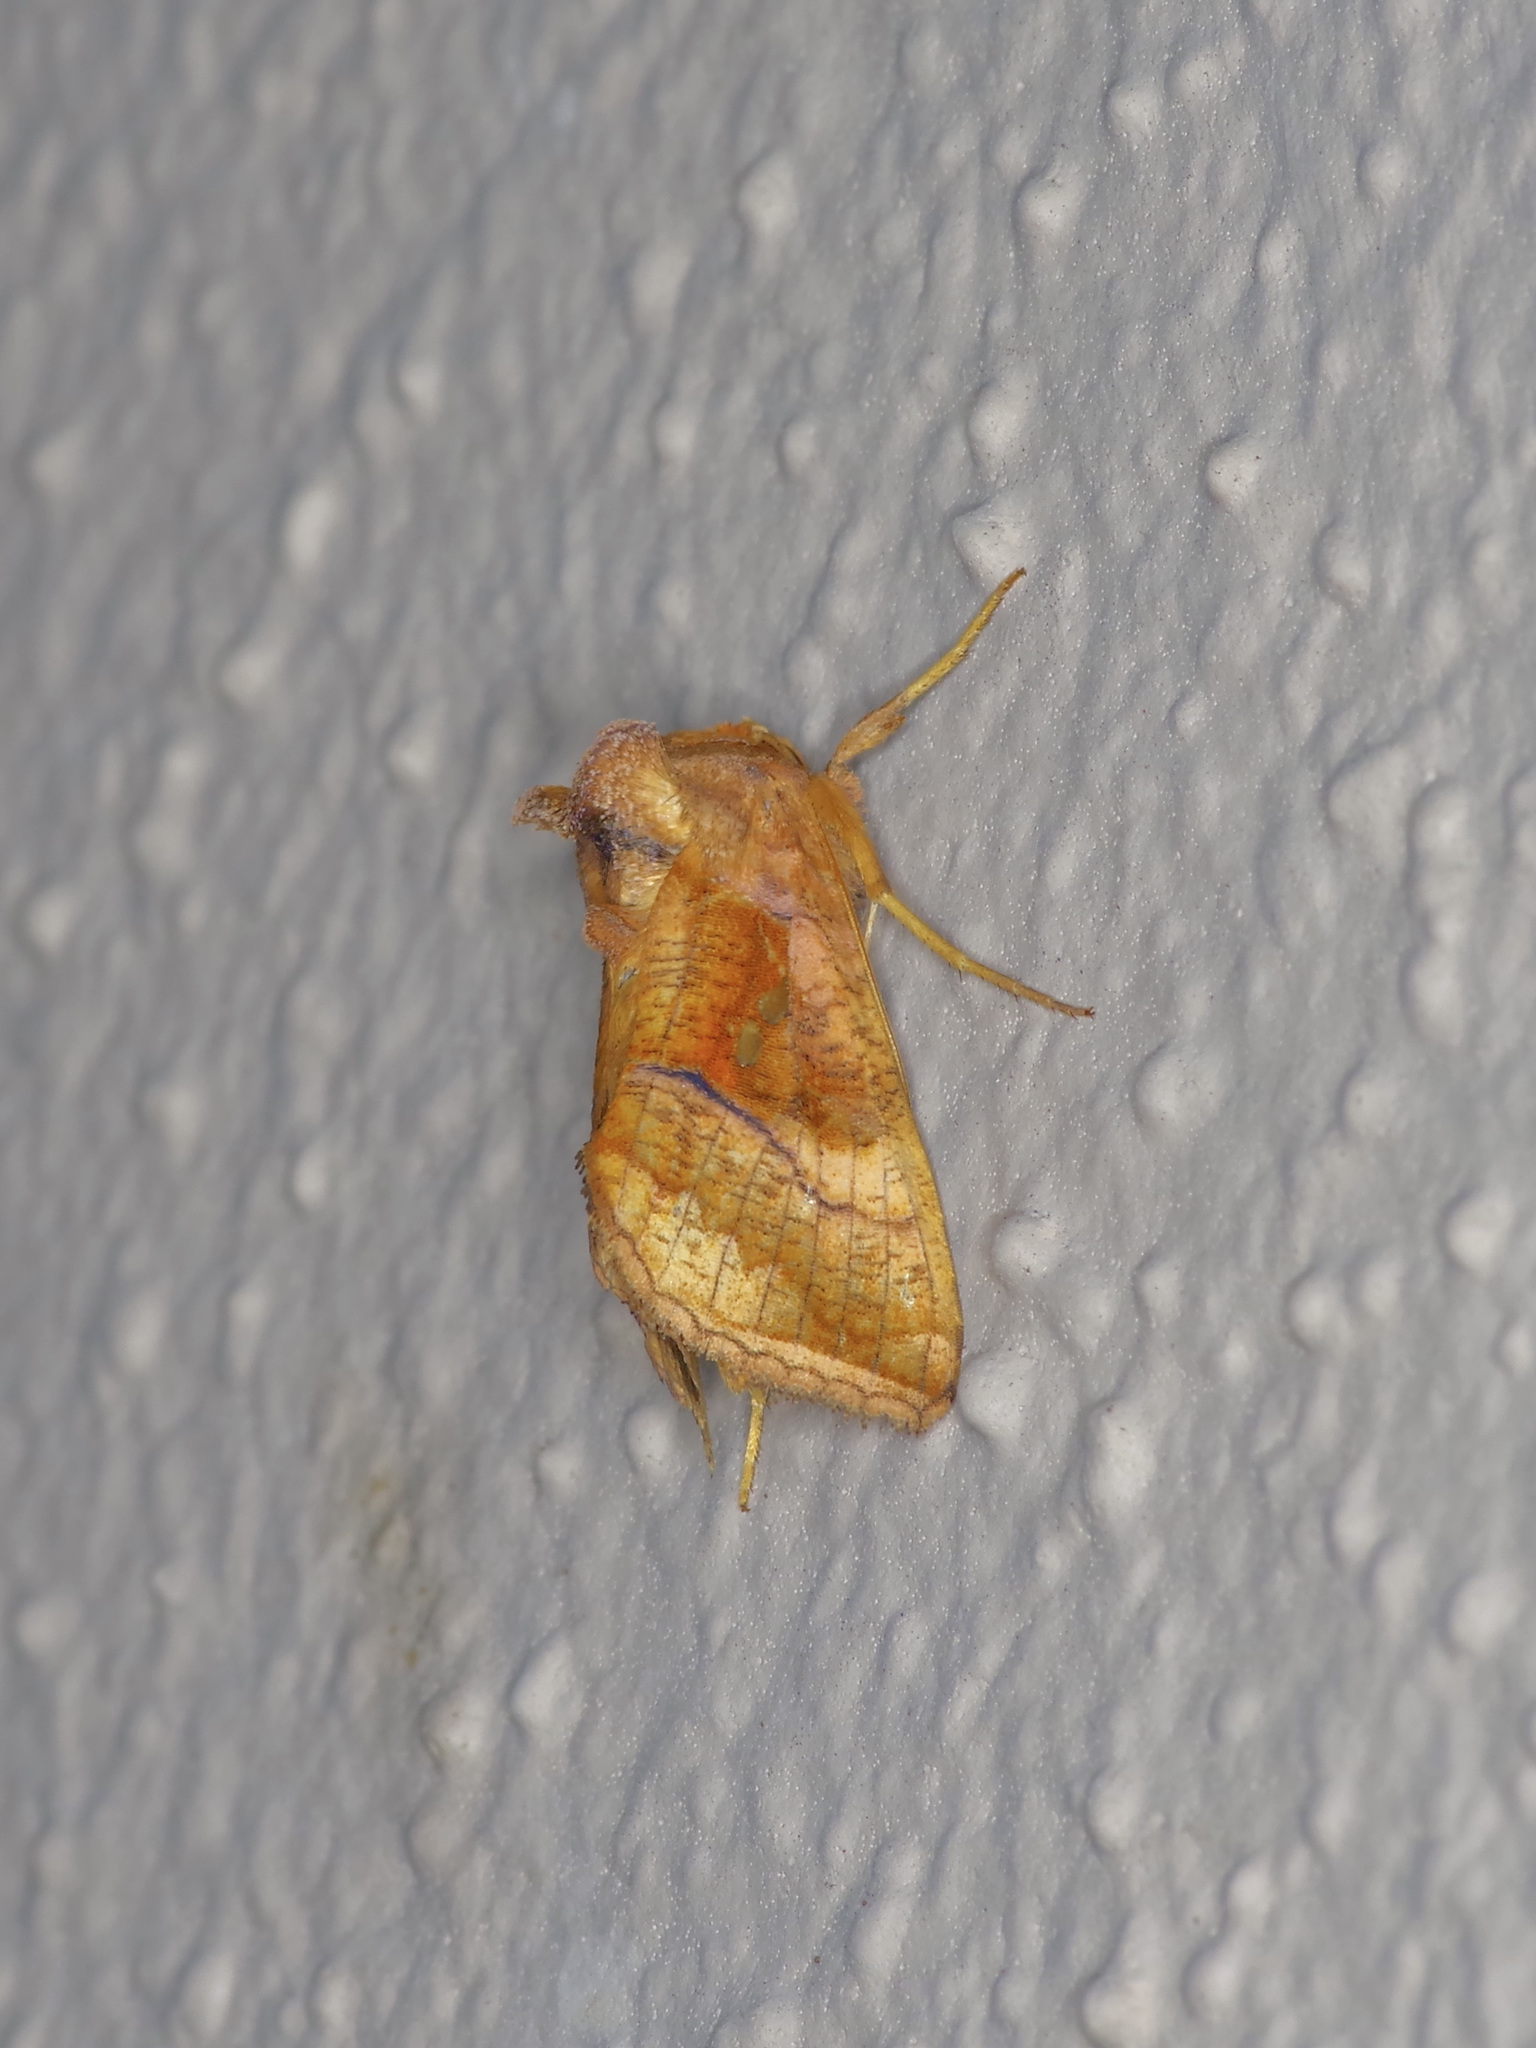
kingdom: Animalia
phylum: Arthropoda
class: Insecta
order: Lepidoptera
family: Noctuidae
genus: Enigmogramma
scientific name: Enigmogramma basigera
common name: Pink-washed looper moth
